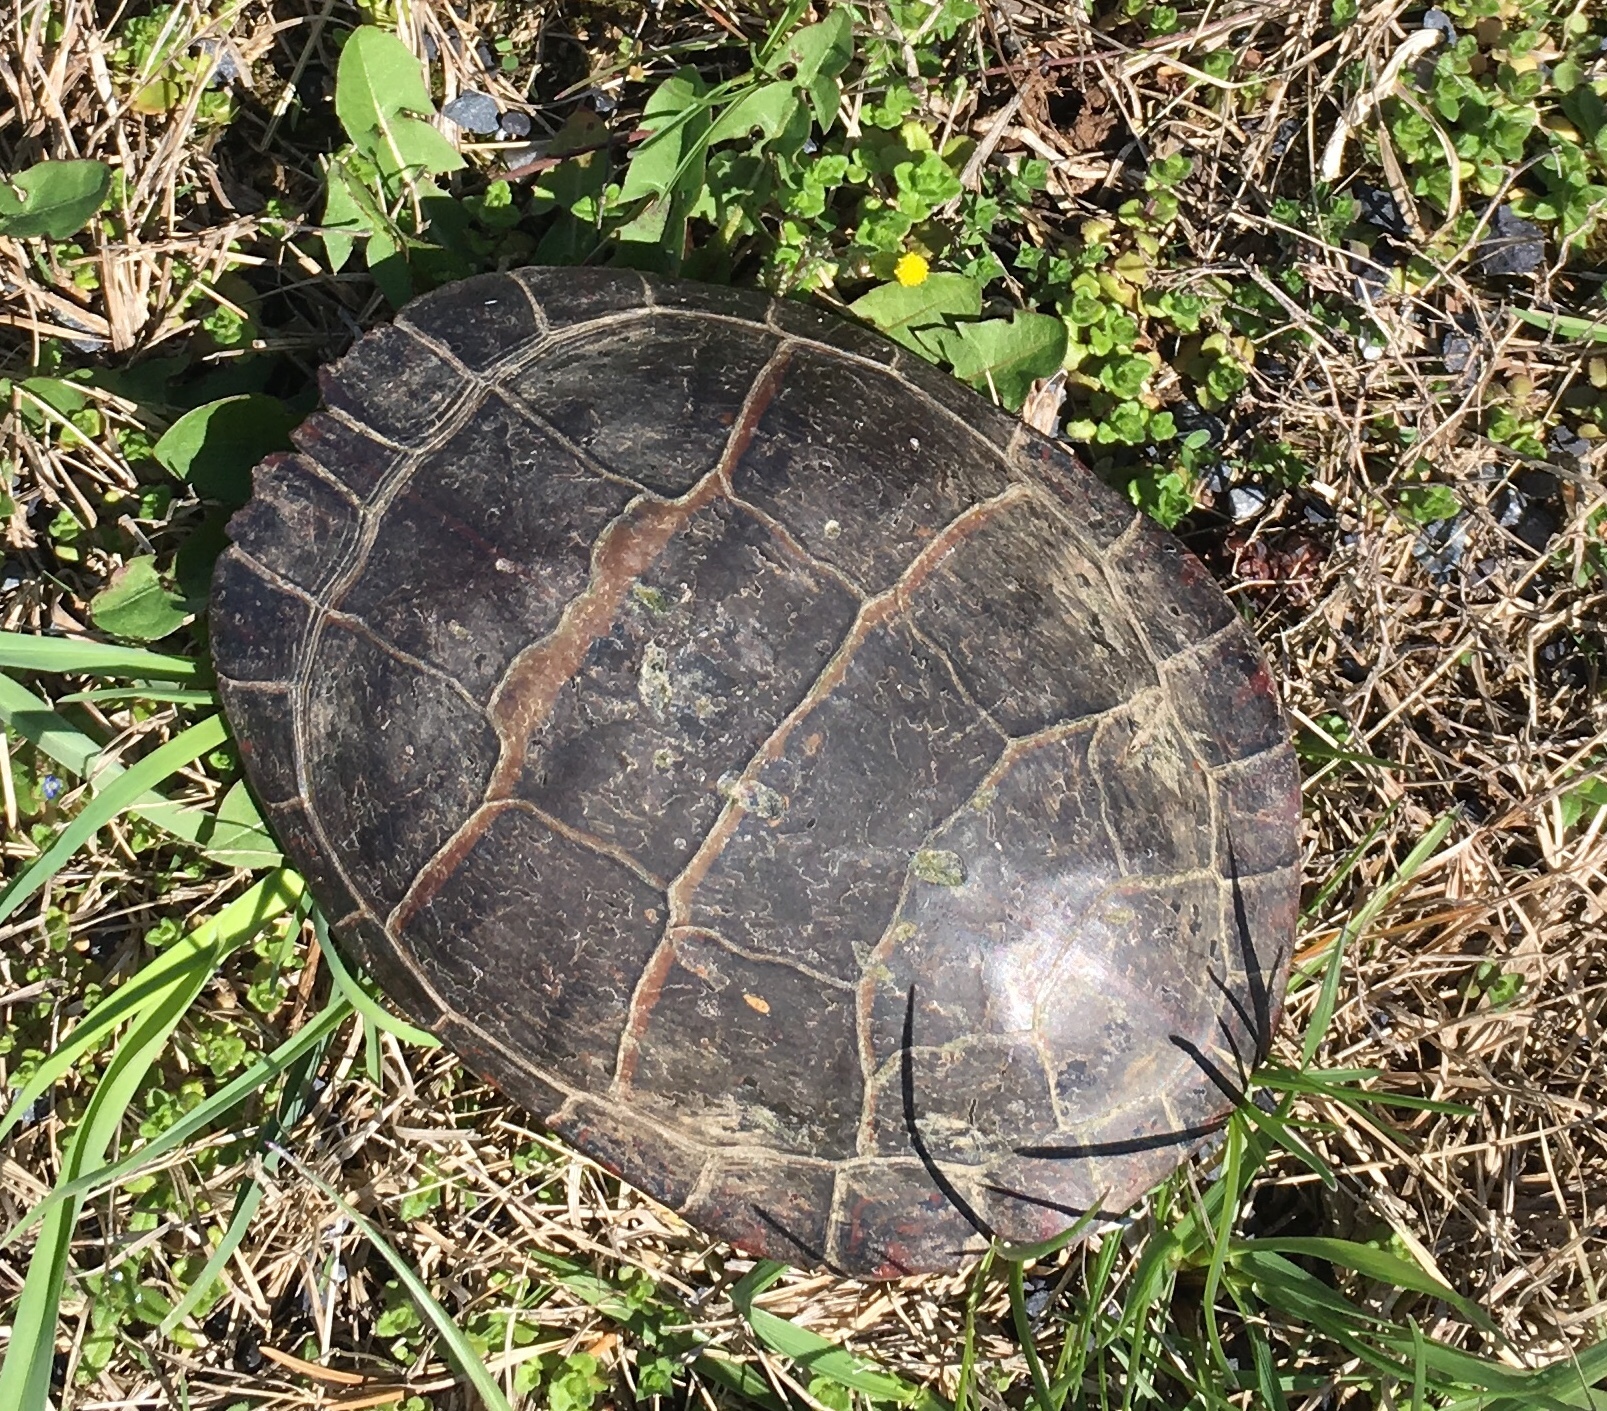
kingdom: Animalia
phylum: Chordata
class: Testudines
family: Emydidae
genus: Chrysemys
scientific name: Chrysemys picta
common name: Painted turtle
